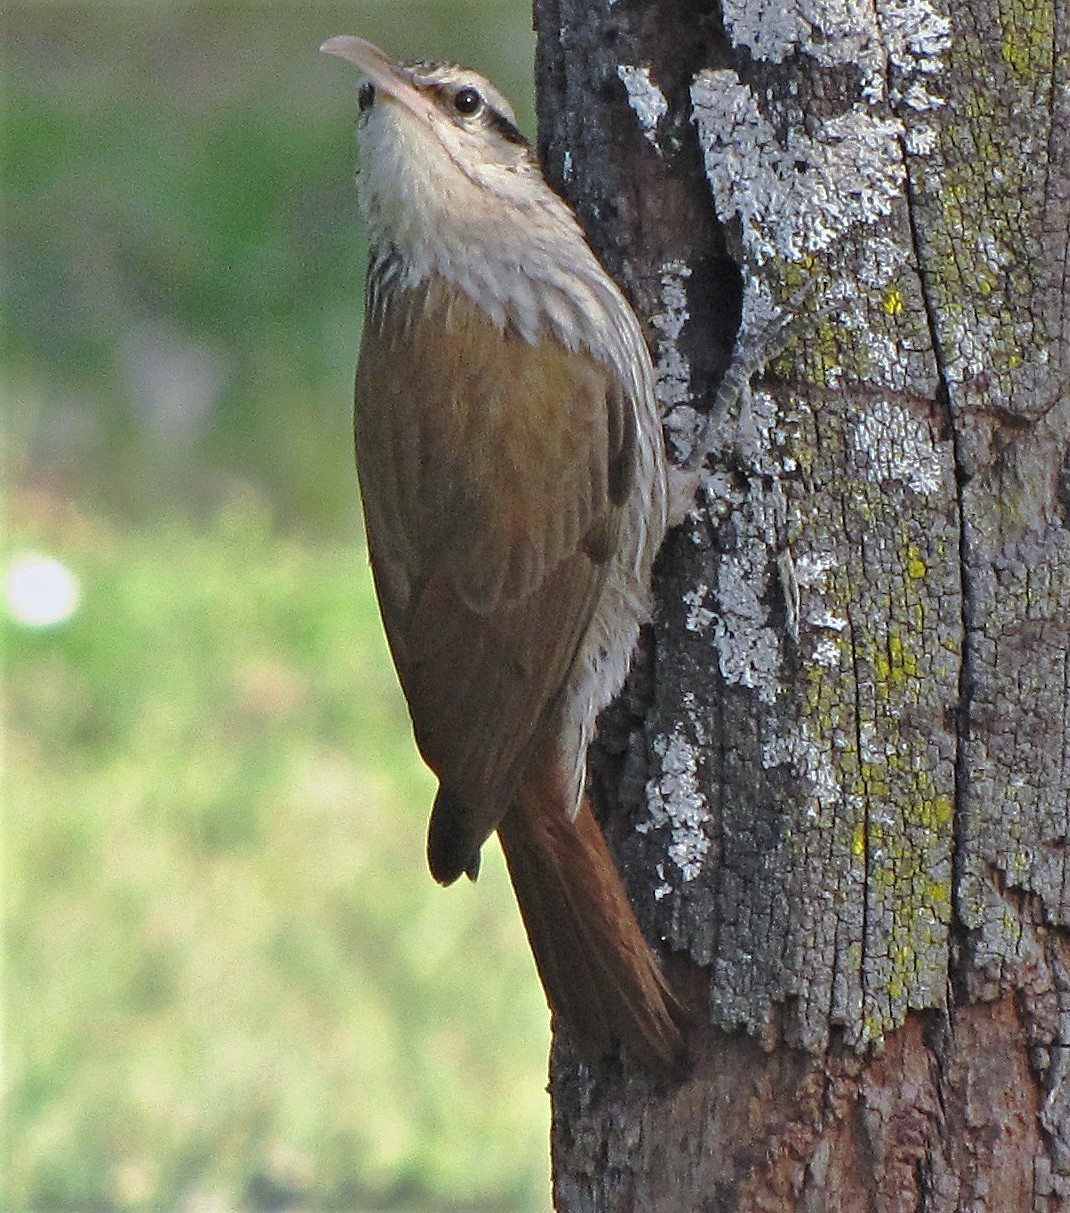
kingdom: Animalia
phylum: Chordata
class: Aves
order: Passeriformes
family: Furnariidae
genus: Lepidocolaptes
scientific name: Lepidocolaptes angustirostris
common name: Narrow-billed woodcreeper
